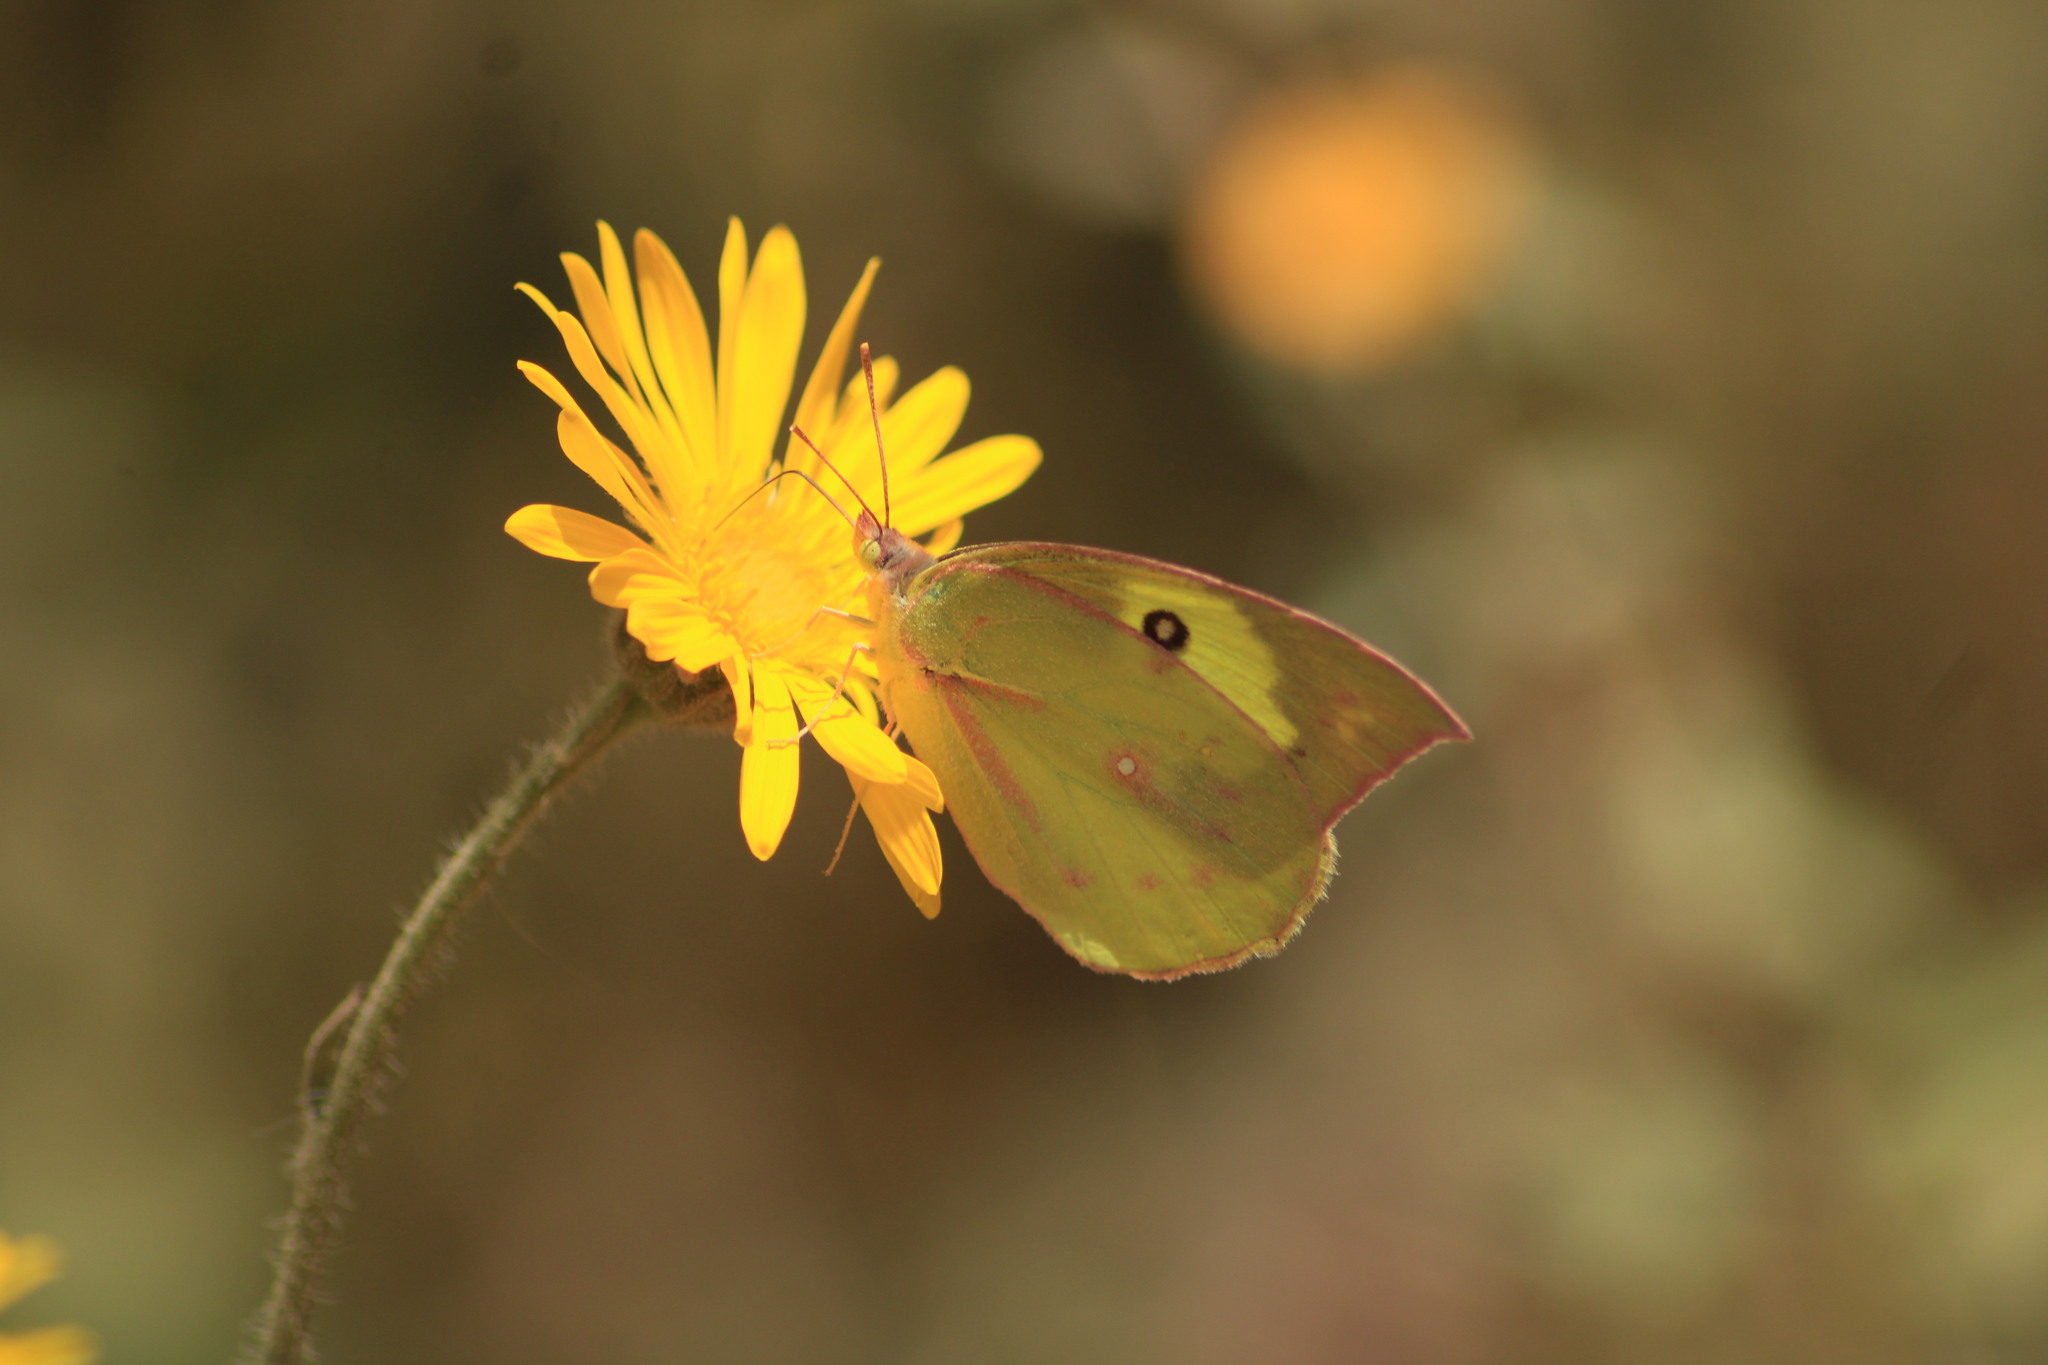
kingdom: Animalia
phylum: Arthropoda
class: Insecta
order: Lepidoptera
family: Pieridae
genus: Zerene
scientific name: Zerene cesonia
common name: Southern dogface
